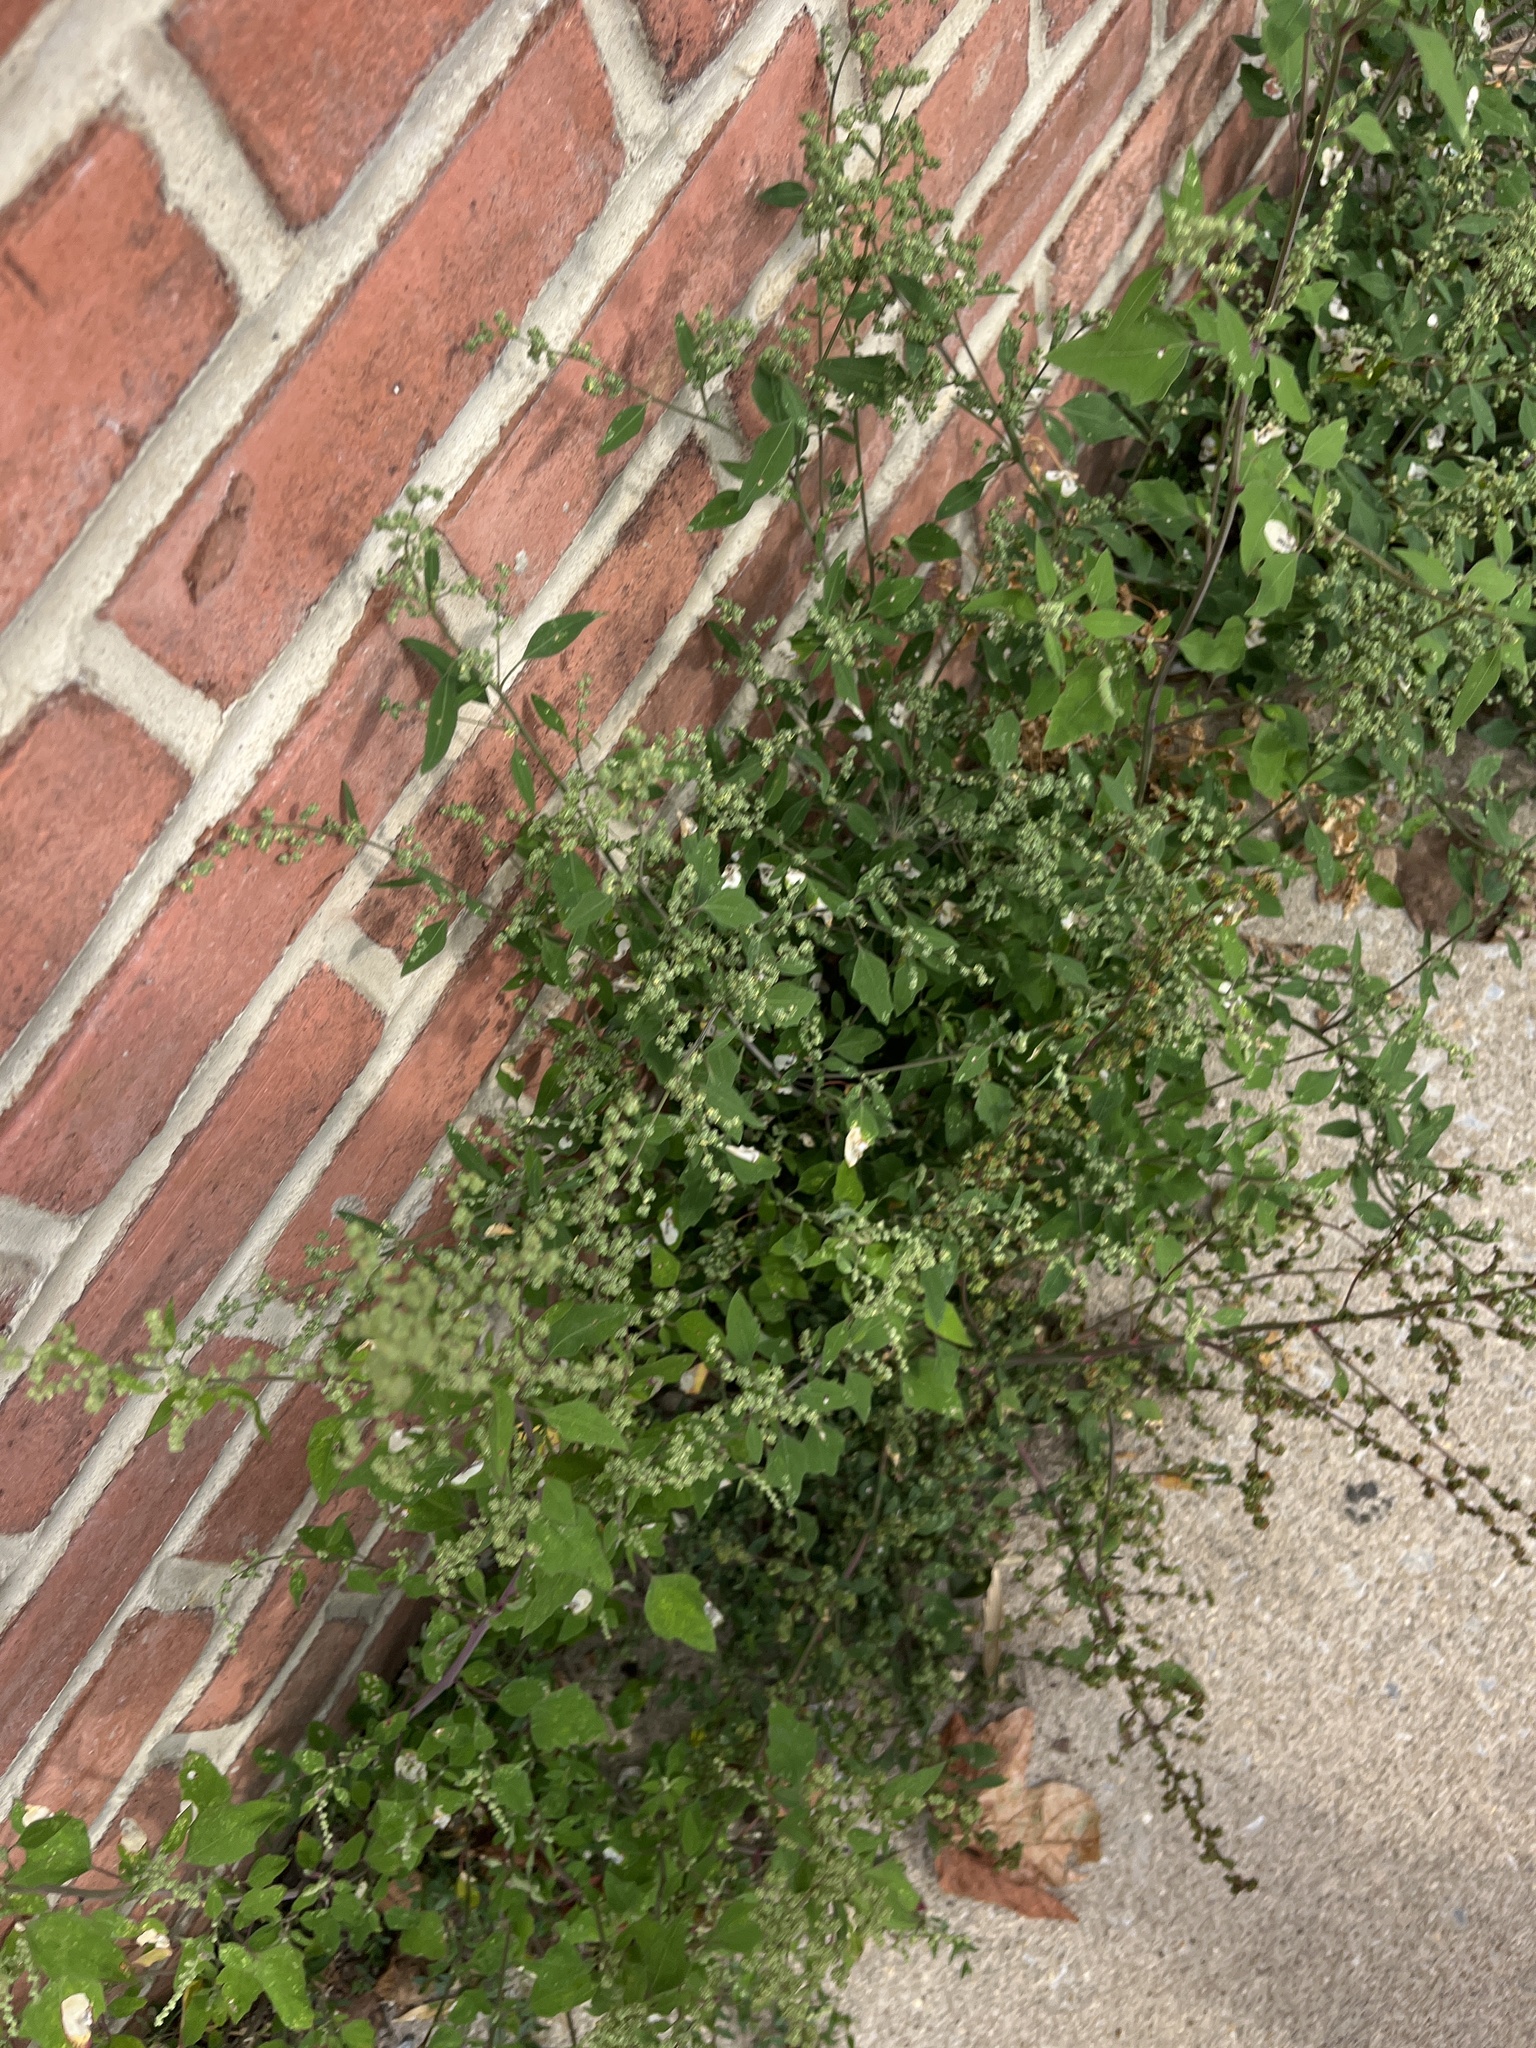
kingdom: Plantae
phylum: Tracheophyta
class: Magnoliopsida
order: Caryophyllales
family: Amaranthaceae
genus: Chenopodium
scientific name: Chenopodium album
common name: Fat-hen
